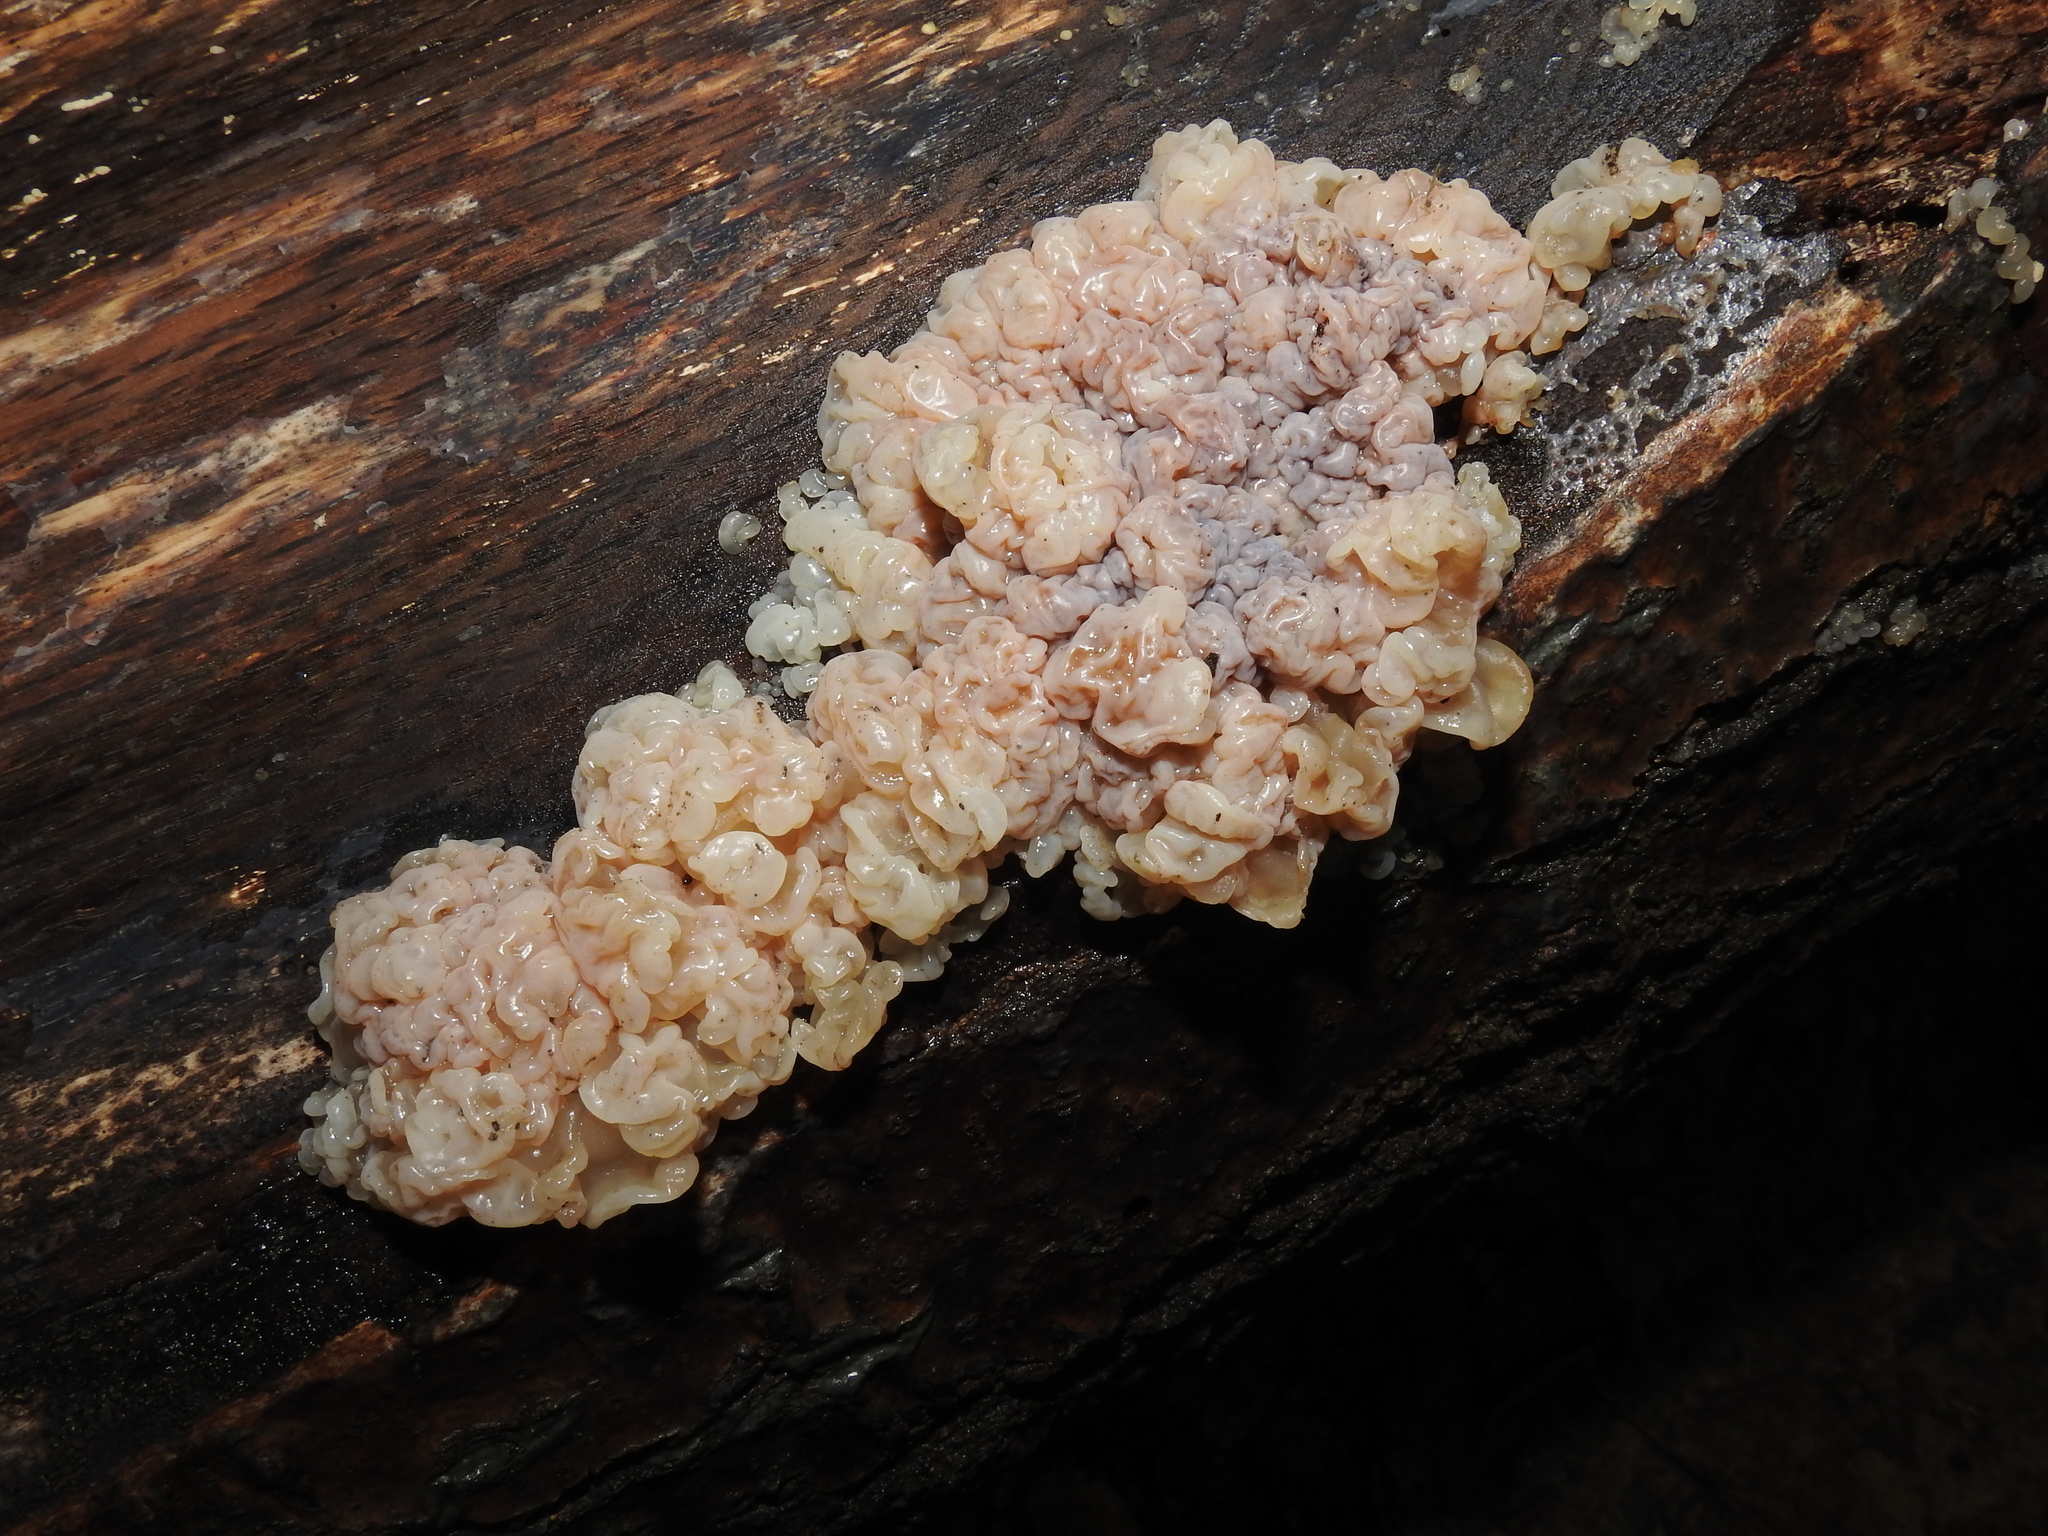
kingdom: Fungi
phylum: Basidiomycota
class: Agaricomycetes
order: Auriculariales
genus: Ductifera
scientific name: Ductifera pululahuana
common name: White jelly fungus
